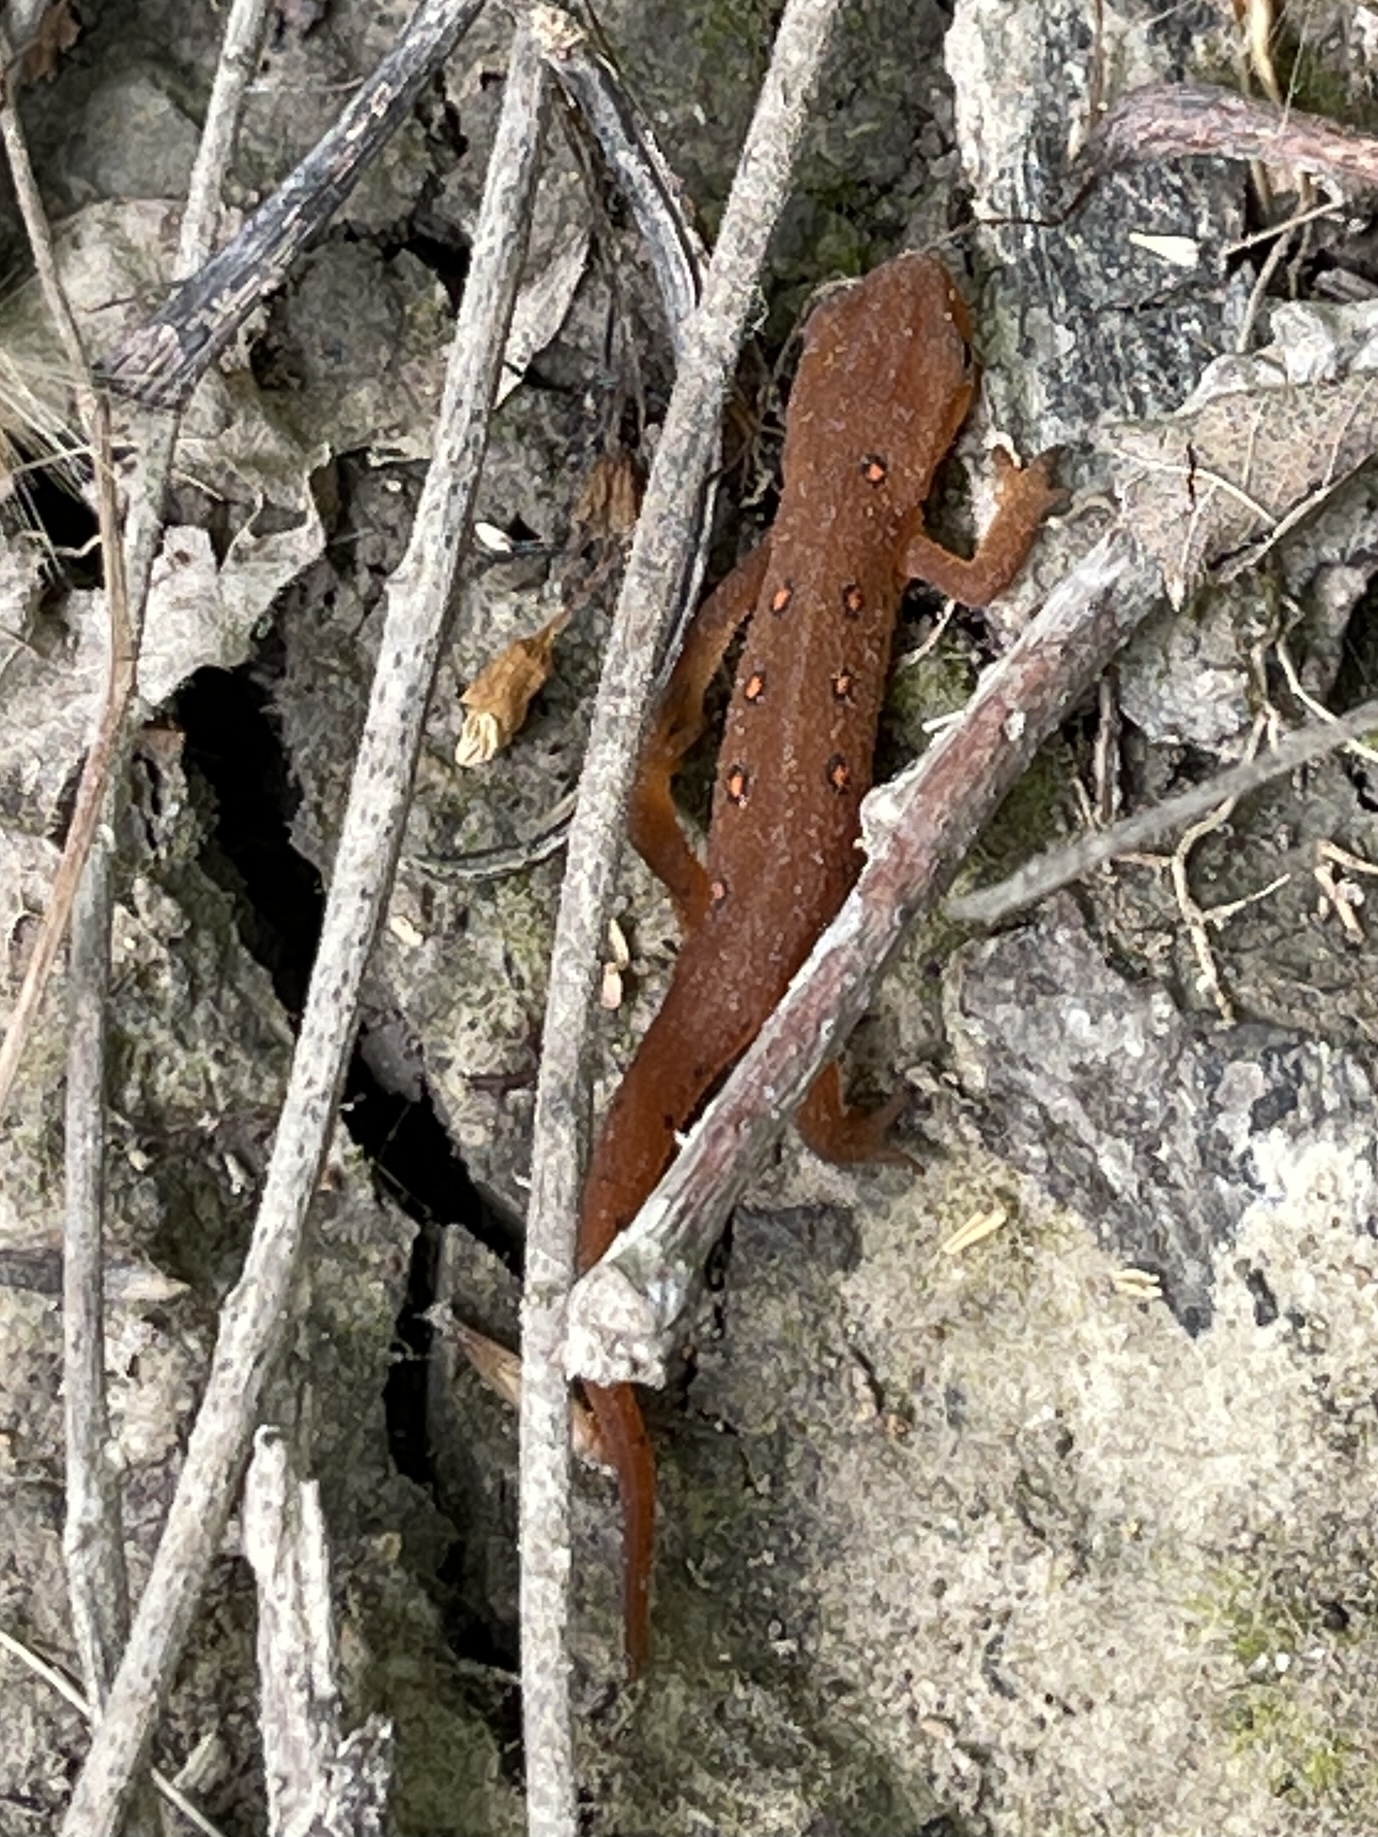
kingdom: Animalia
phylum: Chordata
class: Amphibia
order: Caudata
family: Salamandridae
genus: Notophthalmus
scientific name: Notophthalmus viridescens
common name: Eastern newt
